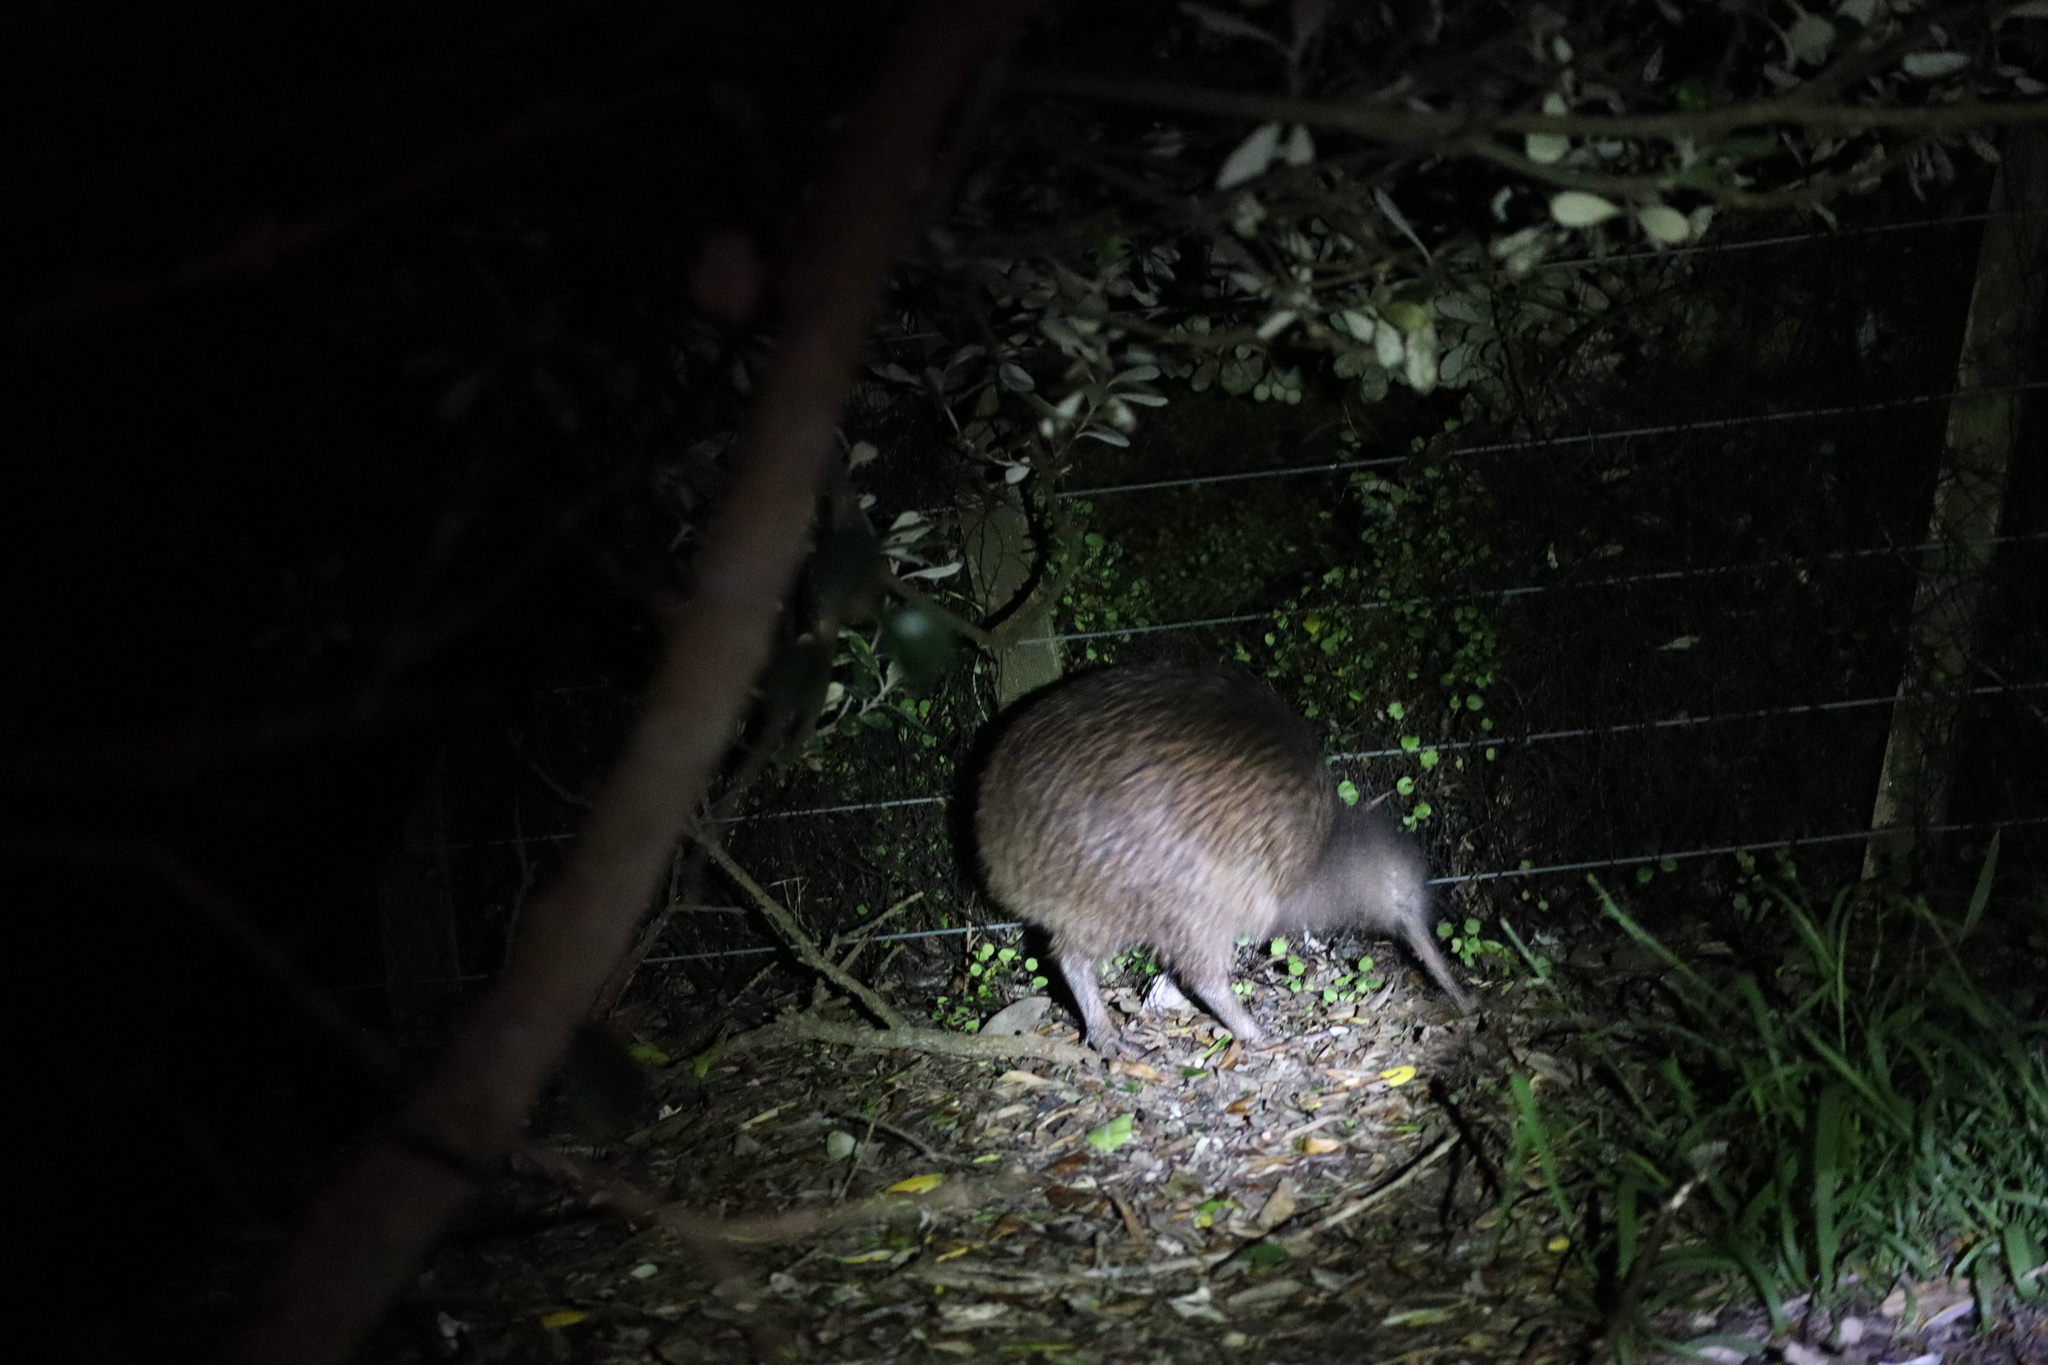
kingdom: Animalia
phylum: Chordata
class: Aves
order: Apterygiformes
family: Apterygidae
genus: Apteryx
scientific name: Apteryx mantelli
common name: North island brown kiwi
